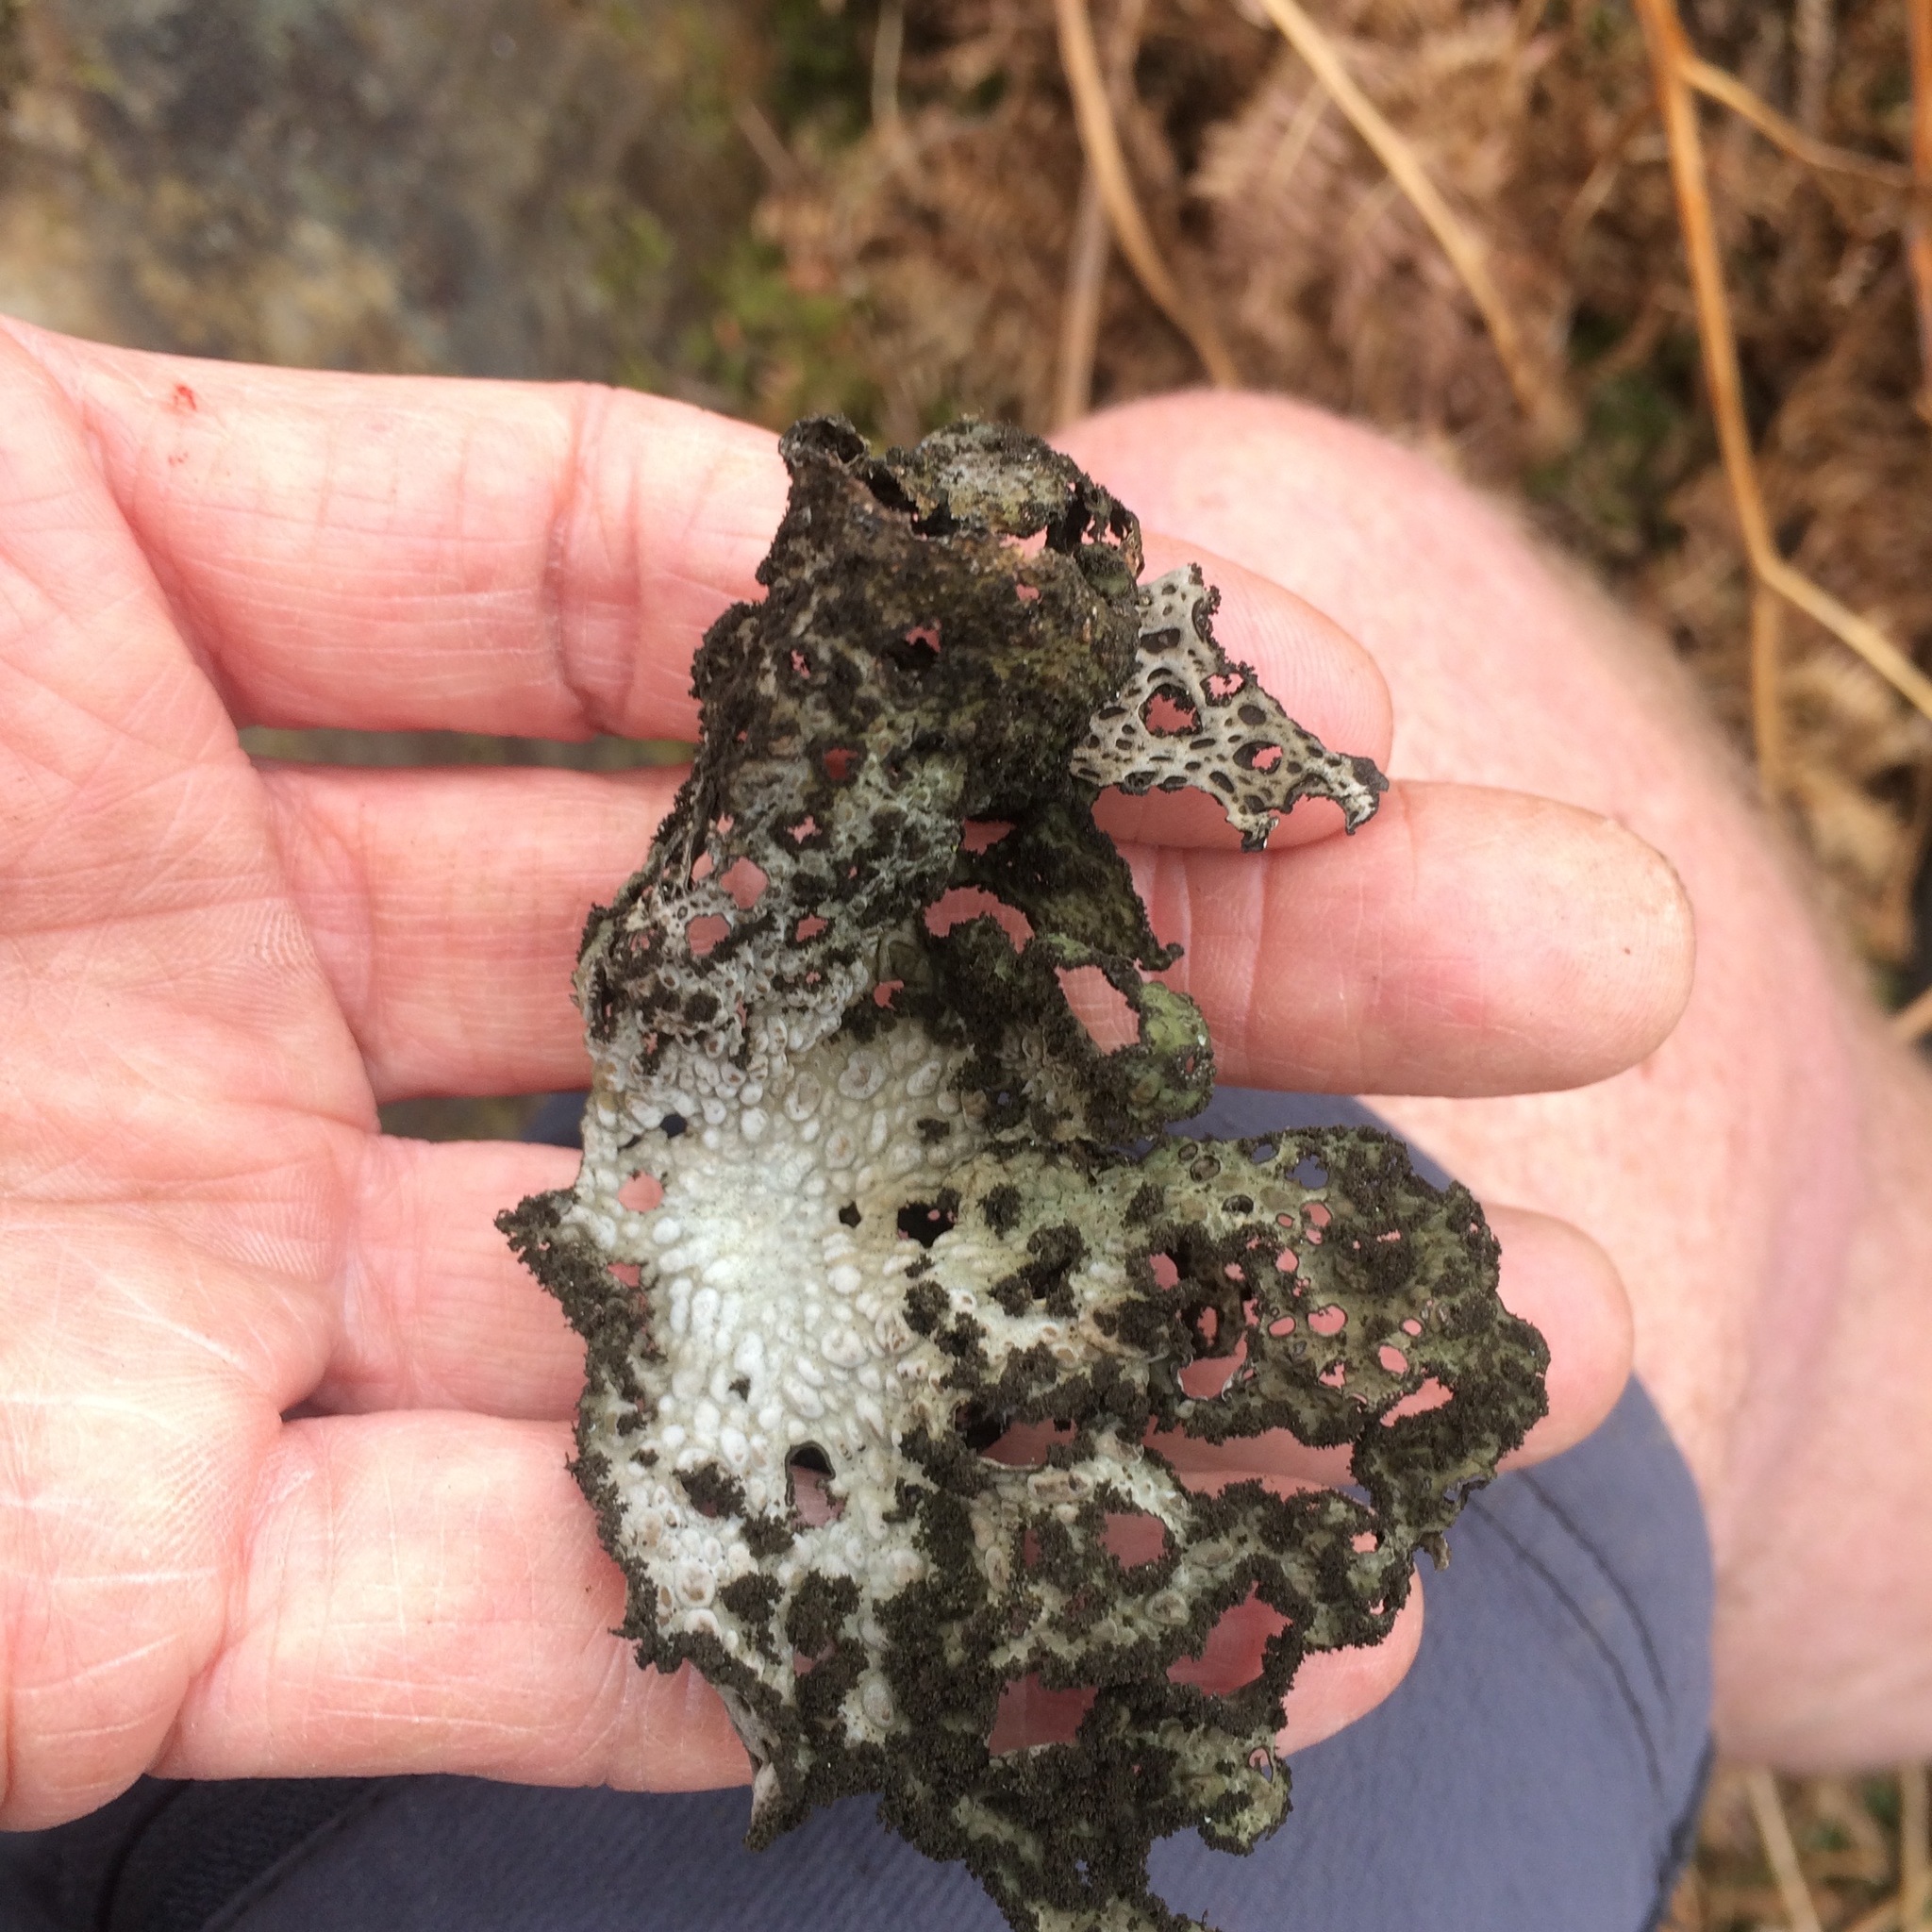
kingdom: Fungi
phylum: Ascomycota
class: Lecanoromycetes
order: Umbilicariales
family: Umbilicariaceae
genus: Lasallia
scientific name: Lasallia pustulata
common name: Blistered toadskin lichen
